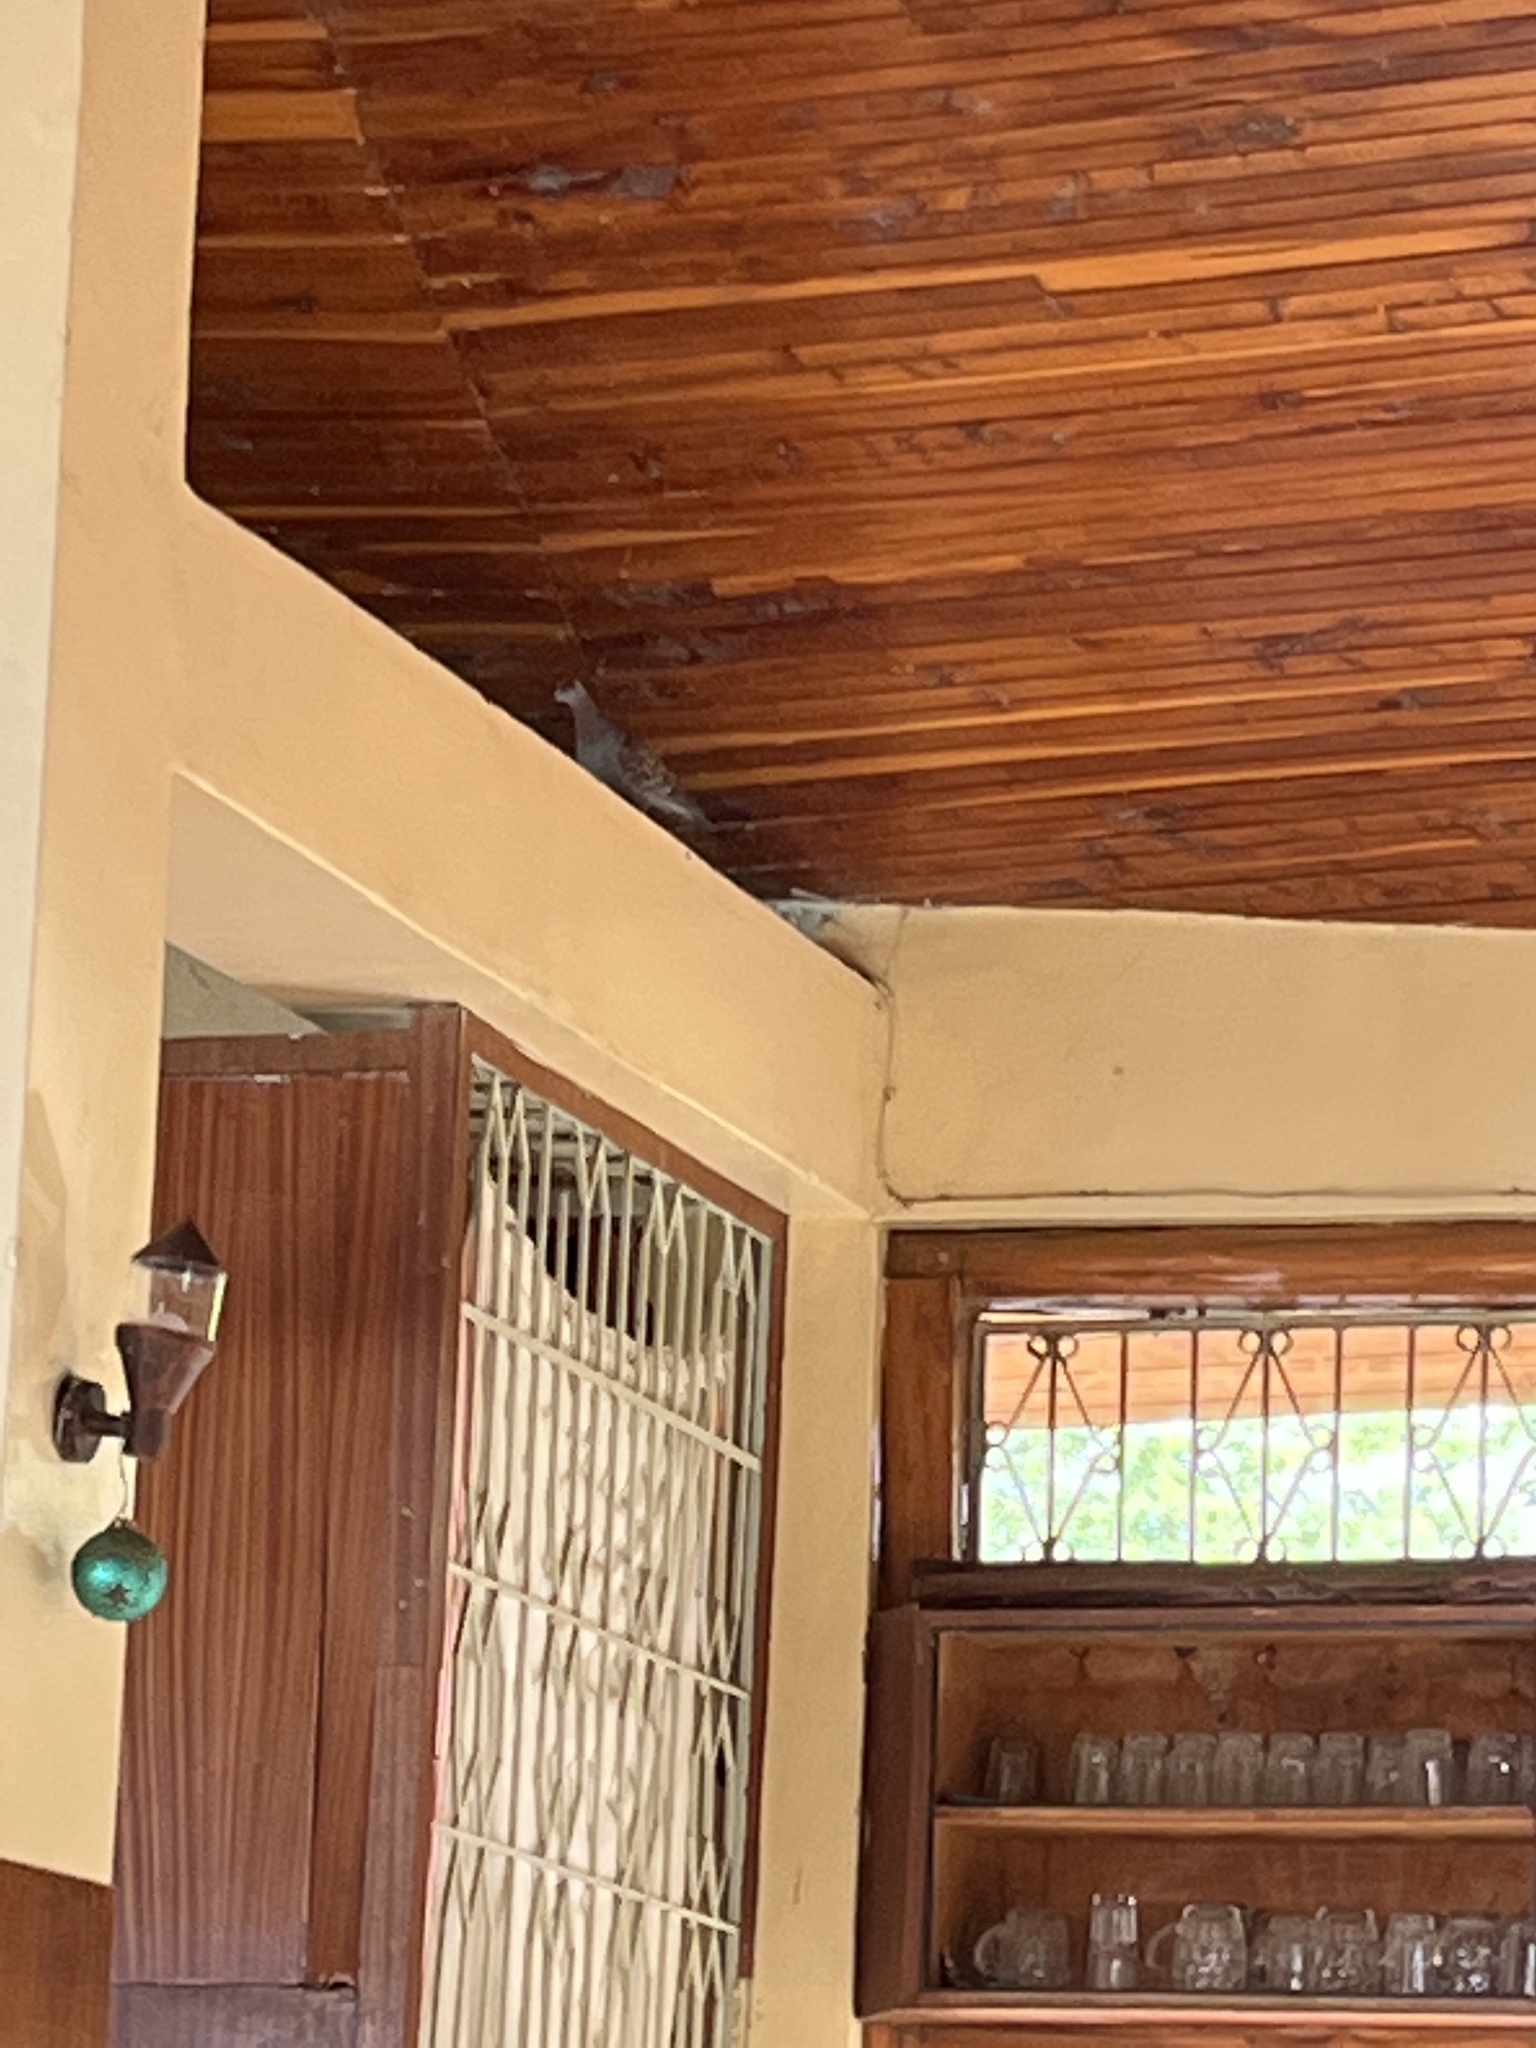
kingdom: Animalia
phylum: Chordata
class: Aves
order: Columbiformes
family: Columbidae
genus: Columba
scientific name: Columba guinea
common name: Speckled pigeon
